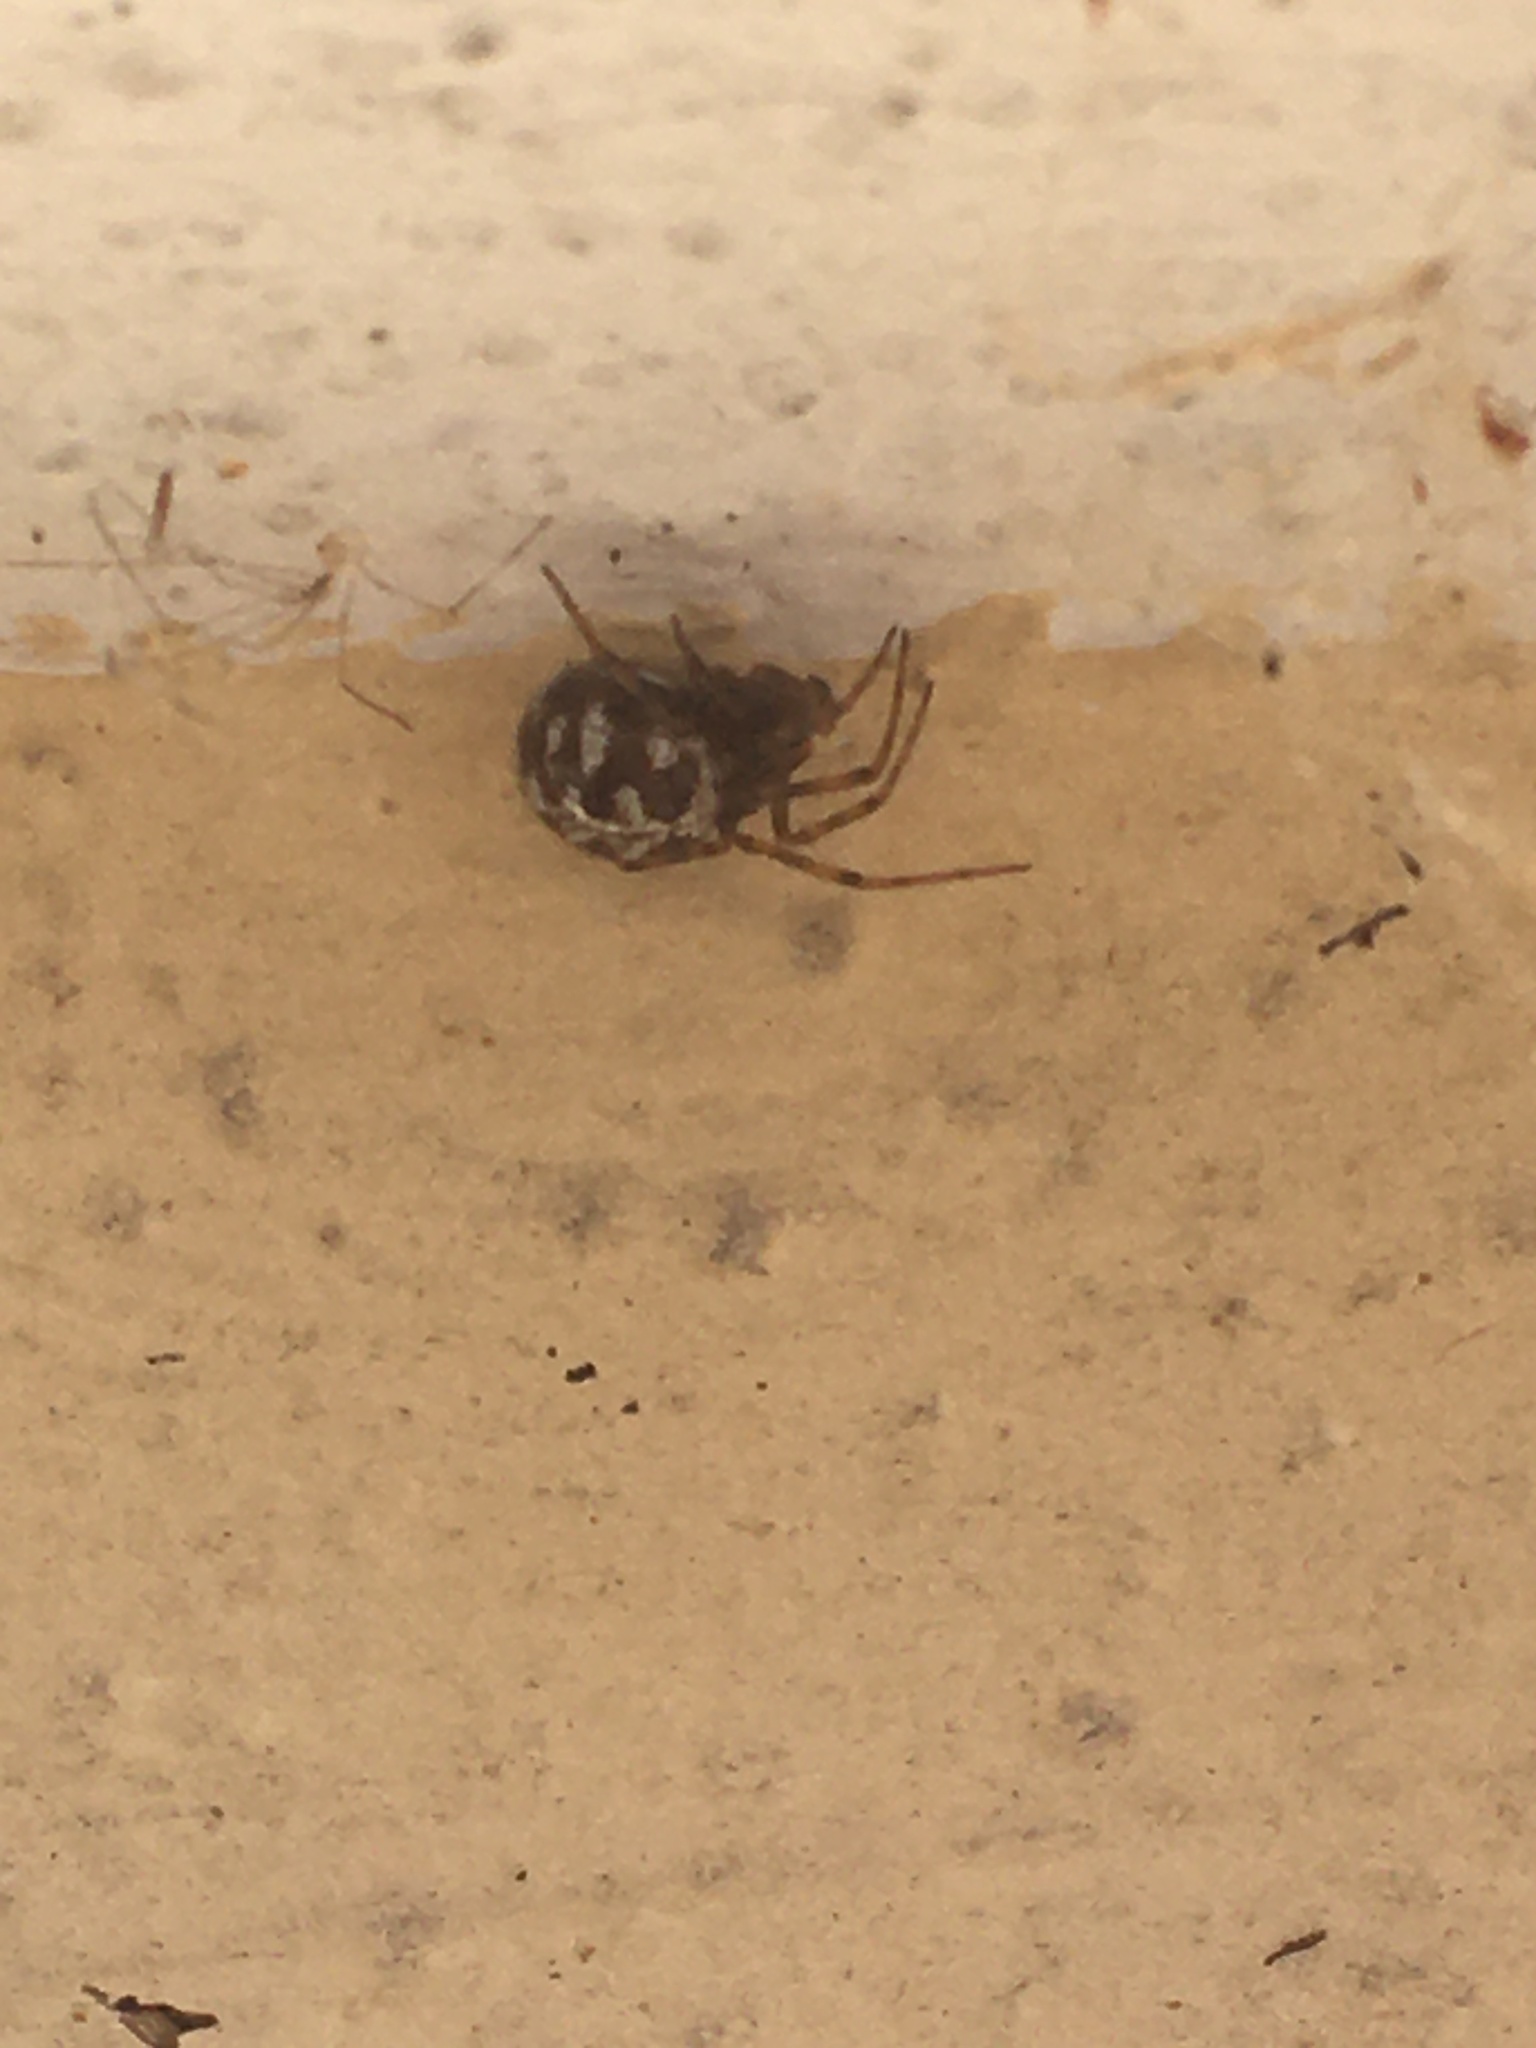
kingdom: Animalia
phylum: Arthropoda
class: Arachnida
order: Araneae
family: Theridiidae
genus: Steatoda
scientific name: Steatoda triangulosa
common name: Triangulate bud spider
